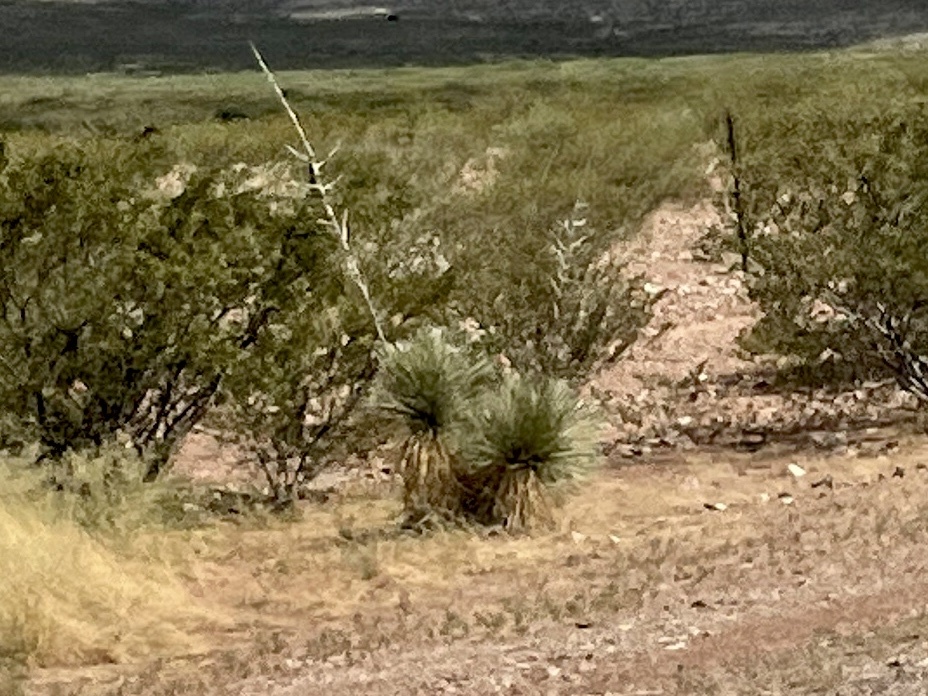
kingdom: Plantae
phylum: Tracheophyta
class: Liliopsida
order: Asparagales
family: Asparagaceae
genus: Yucca
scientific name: Yucca elata
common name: Palmella
